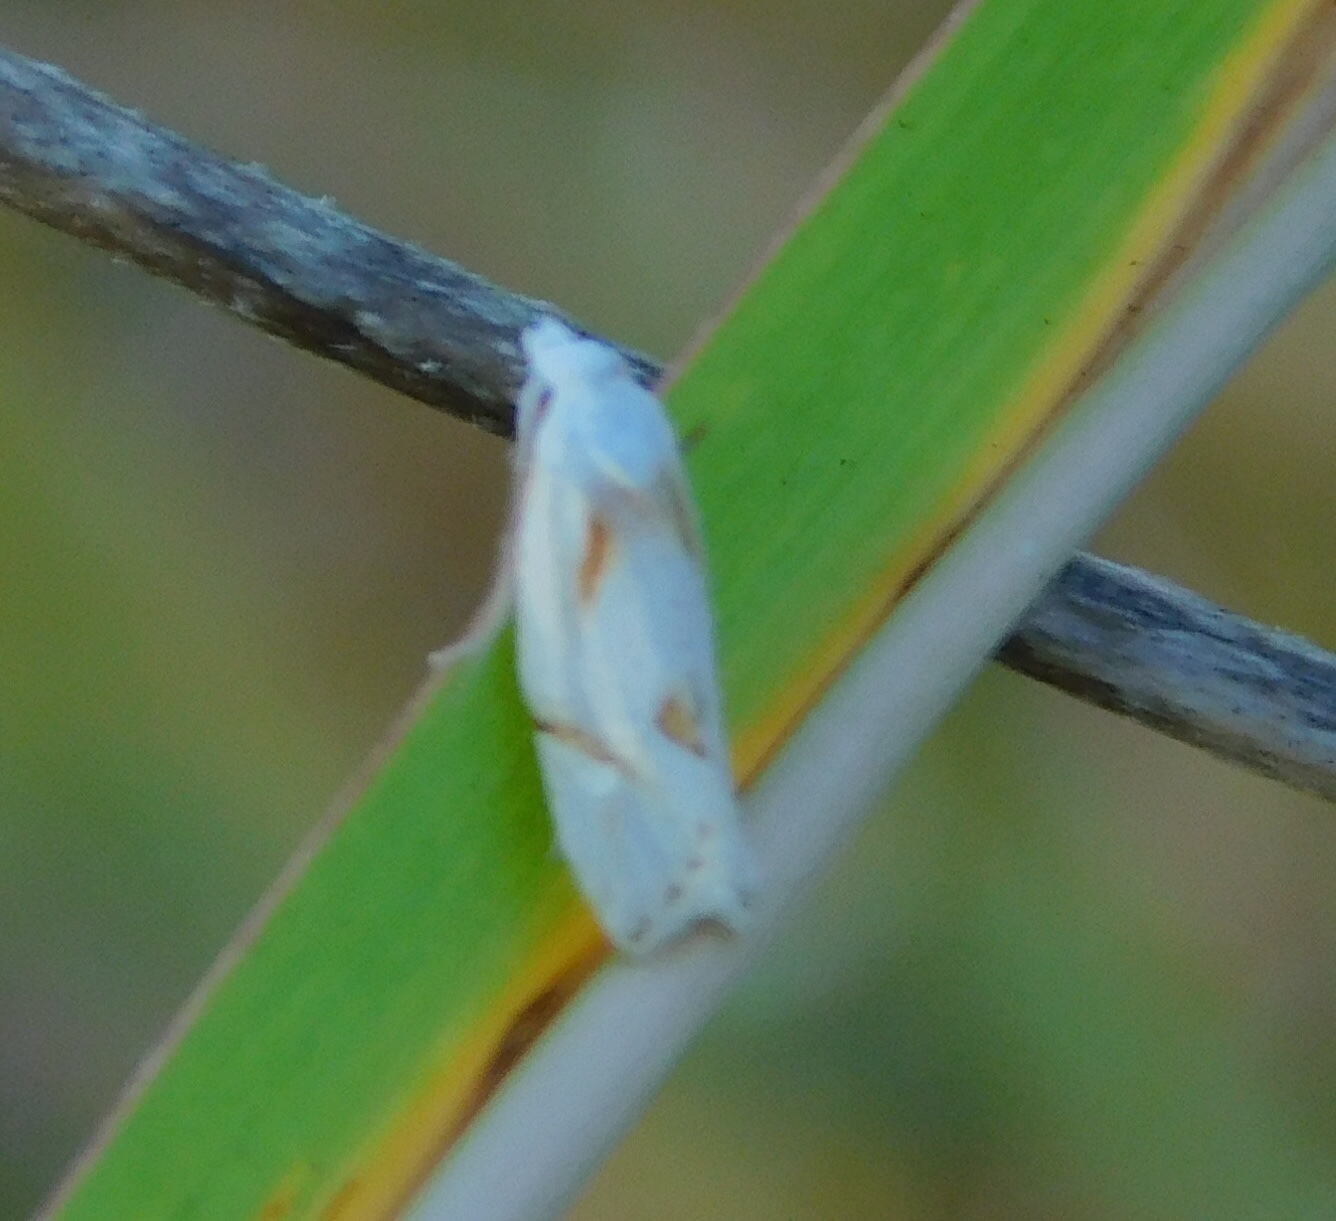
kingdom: Animalia
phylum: Arthropoda
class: Insecta
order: Lepidoptera
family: Tortricidae
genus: Aethes
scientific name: Aethes seriatana
